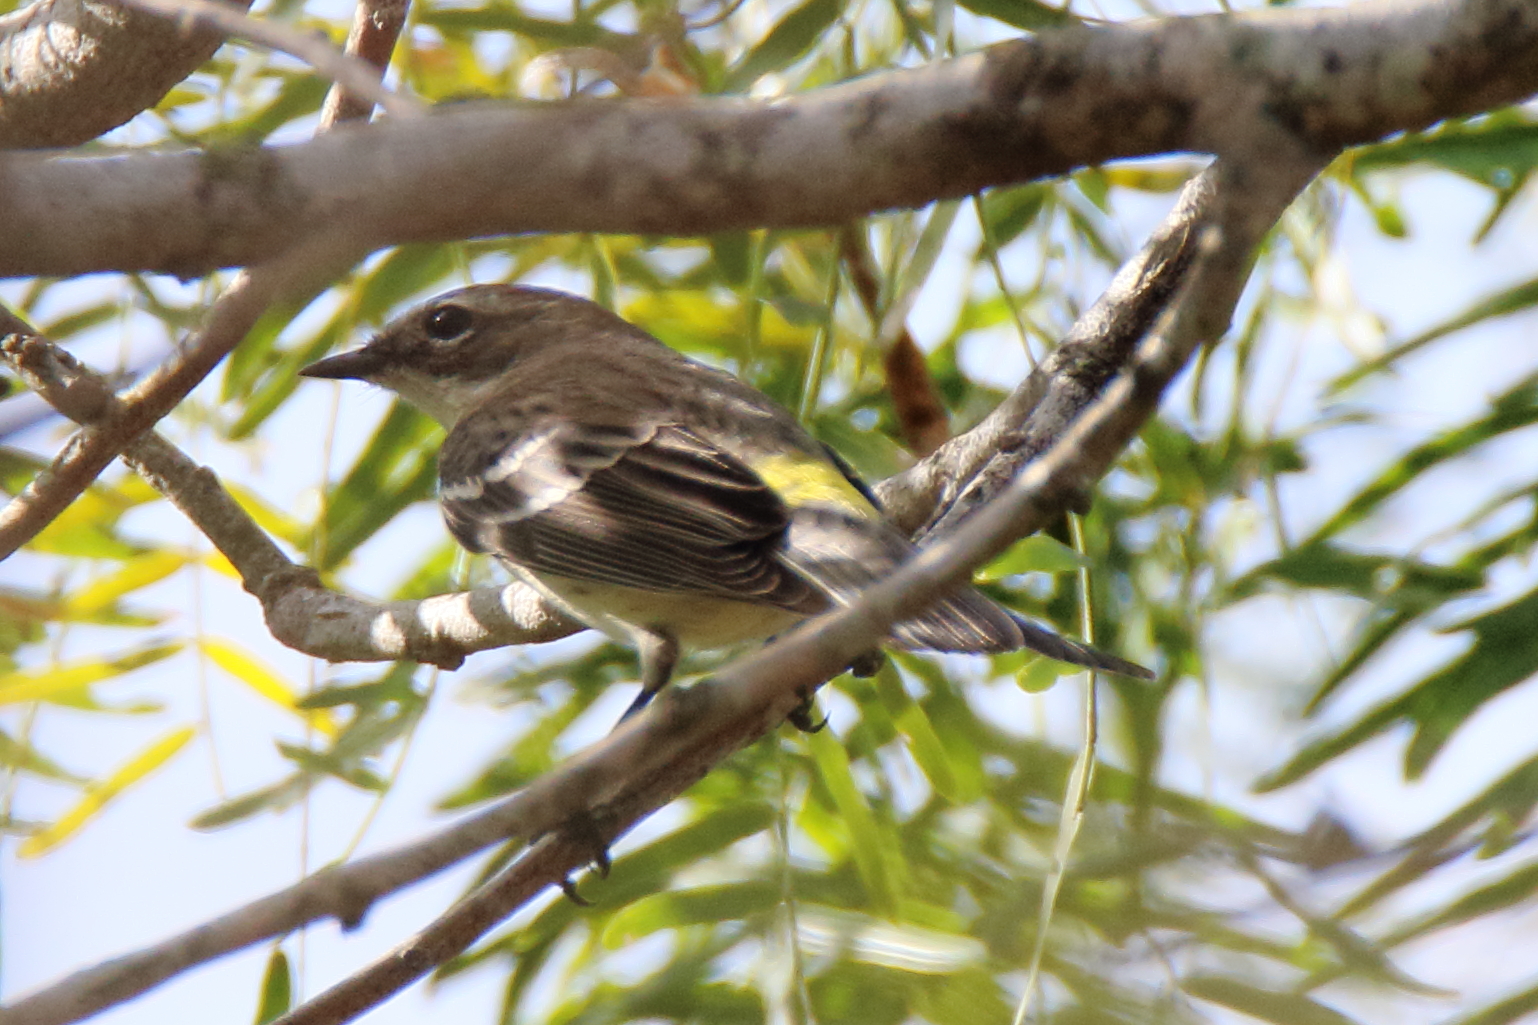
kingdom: Animalia
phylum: Chordata
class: Aves
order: Passeriformes
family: Parulidae
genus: Setophaga
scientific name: Setophaga coronata
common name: Myrtle warbler
